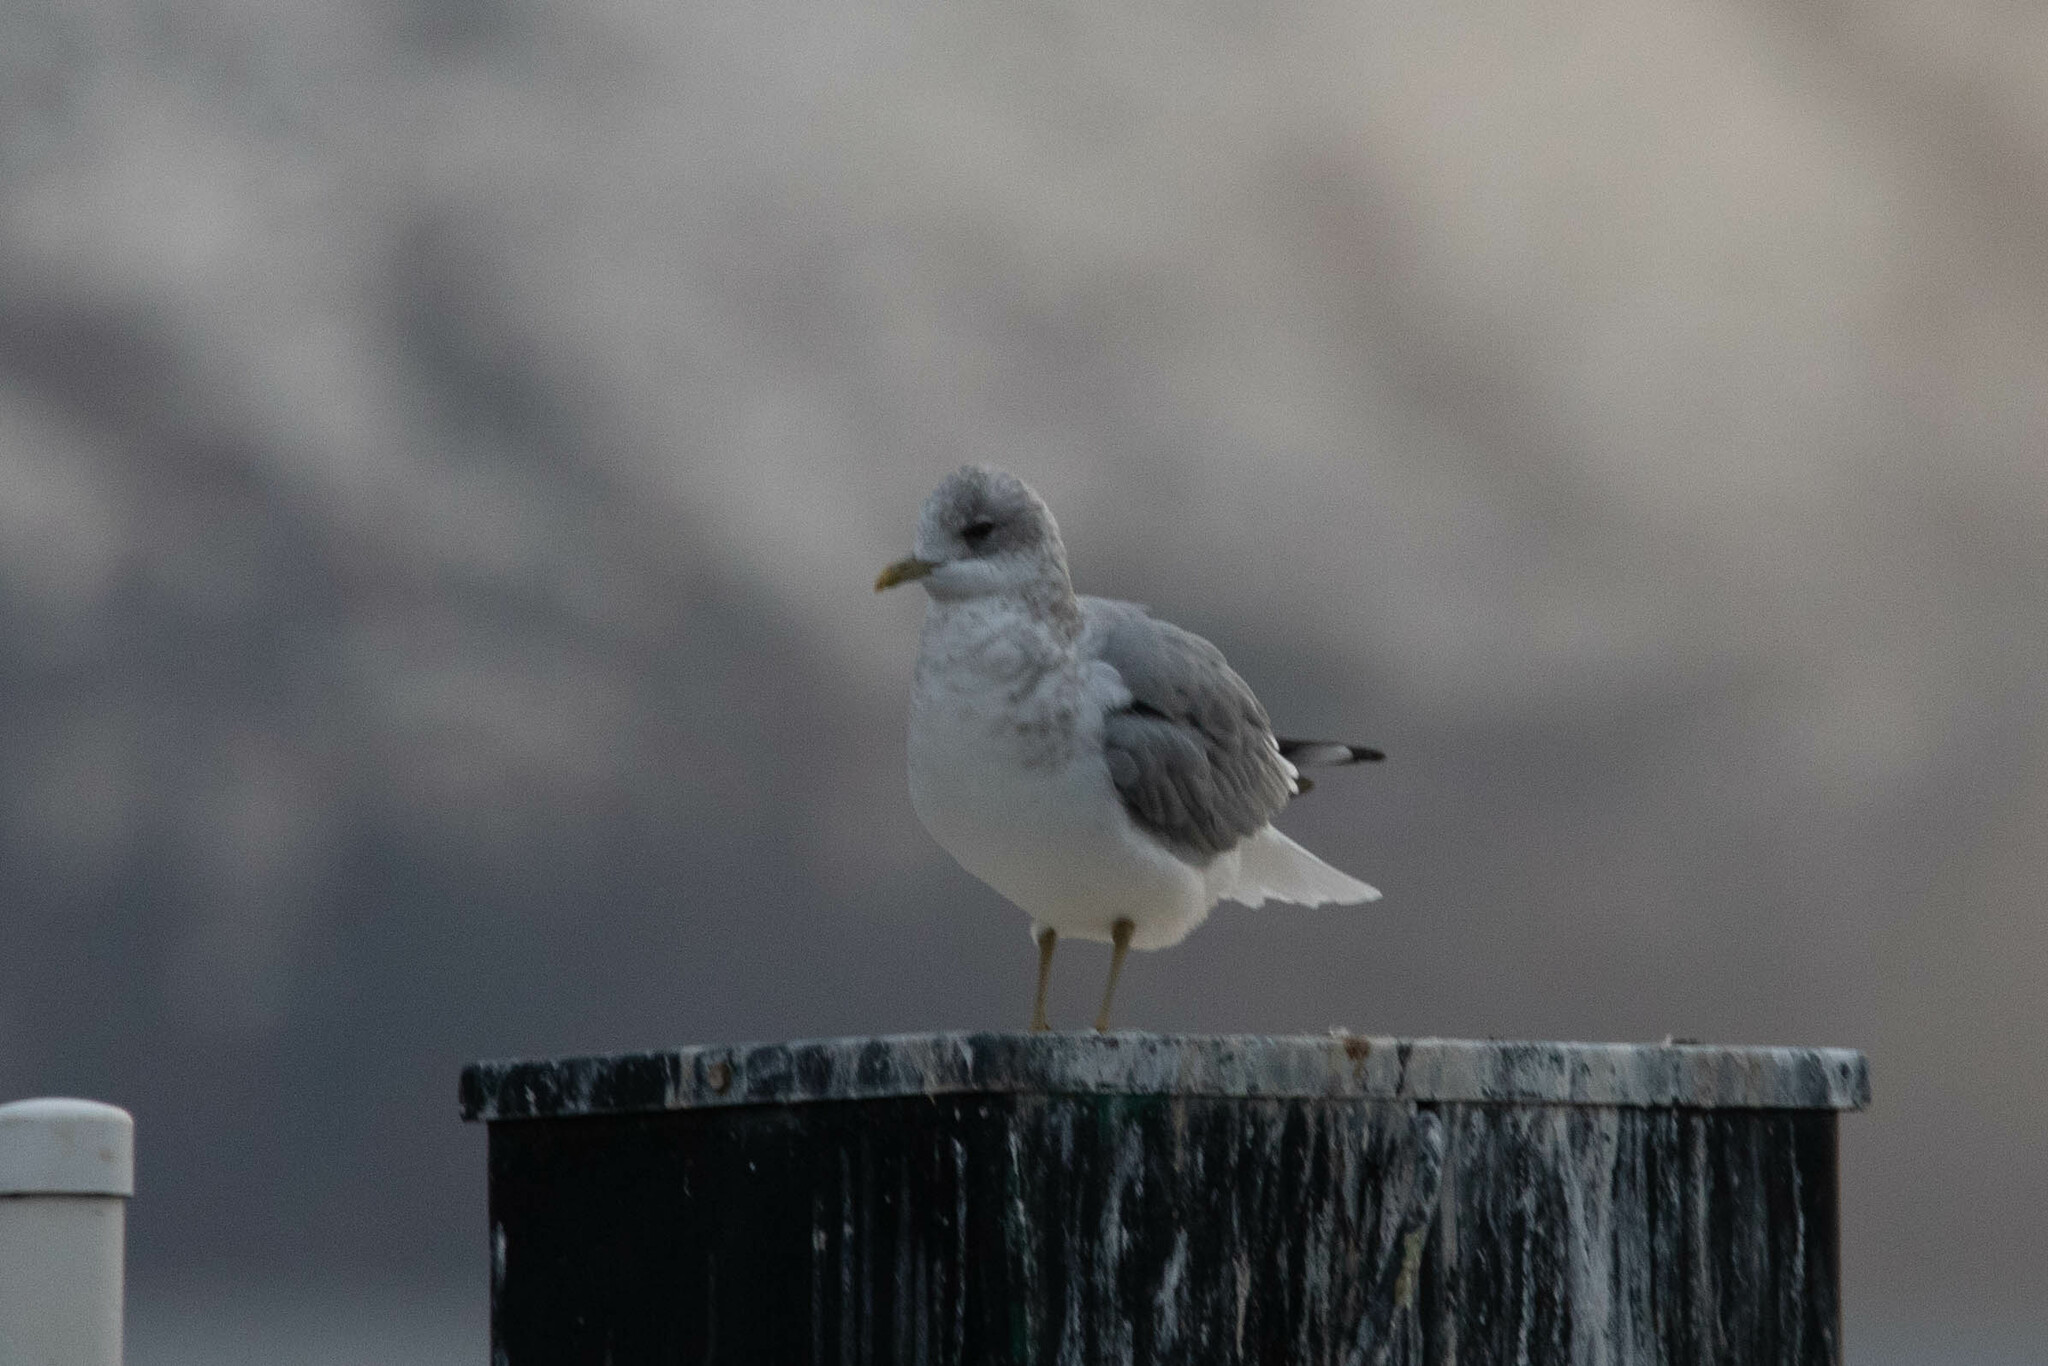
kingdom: Animalia
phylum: Chordata
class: Aves
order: Charadriiformes
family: Laridae
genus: Larus
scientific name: Larus brachyrhynchus
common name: Short-billed gull
